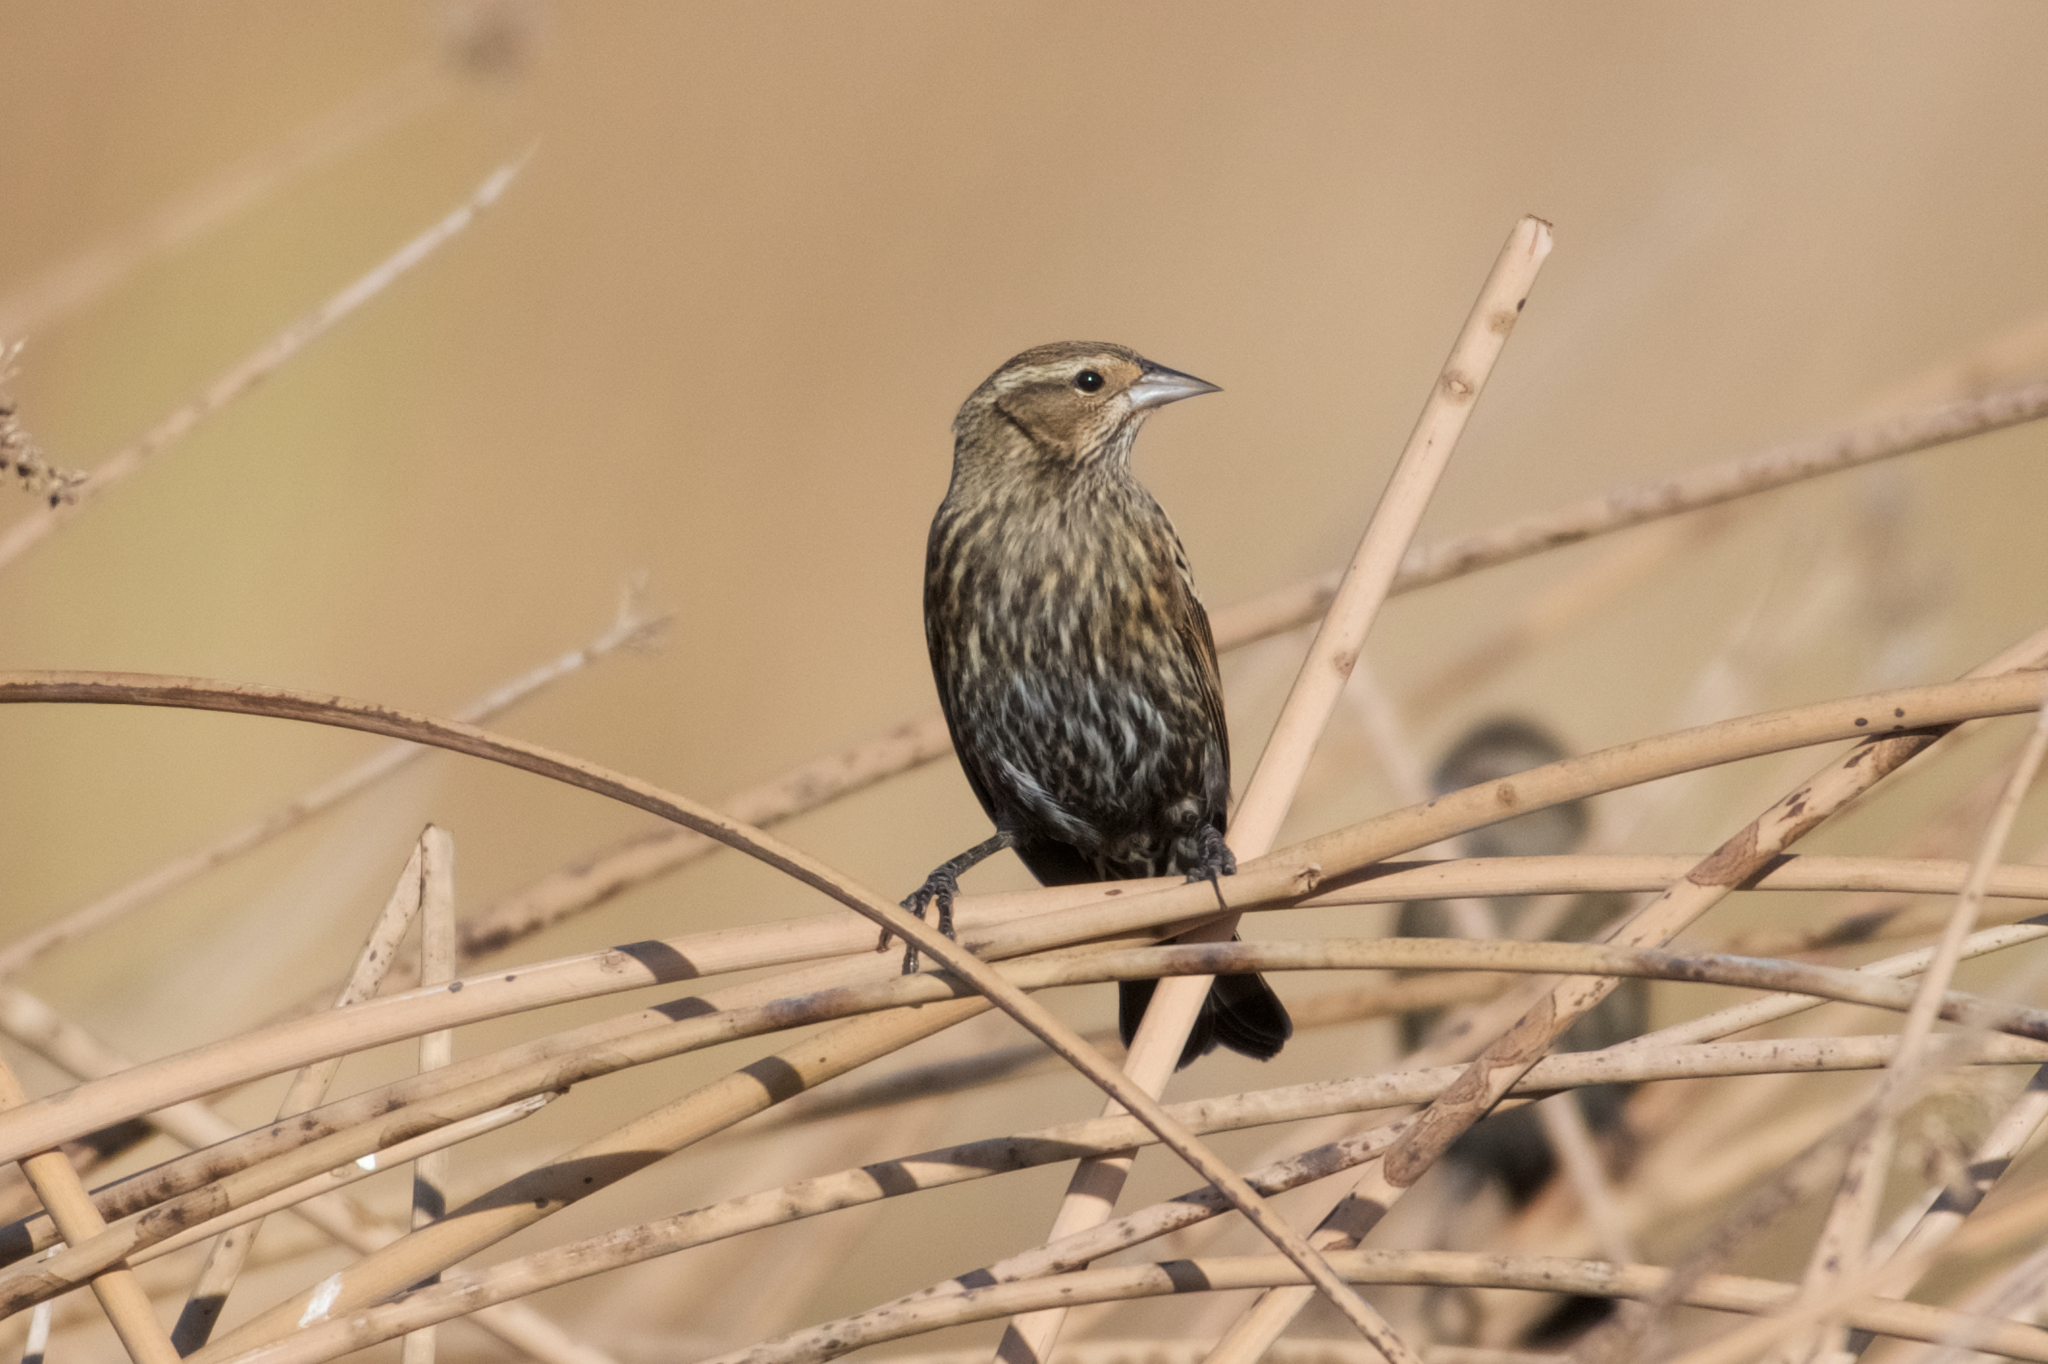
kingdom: Animalia
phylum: Chordata
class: Aves
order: Passeriformes
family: Icteridae
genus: Agelaius
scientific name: Agelaius phoeniceus
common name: Red-winged blackbird
